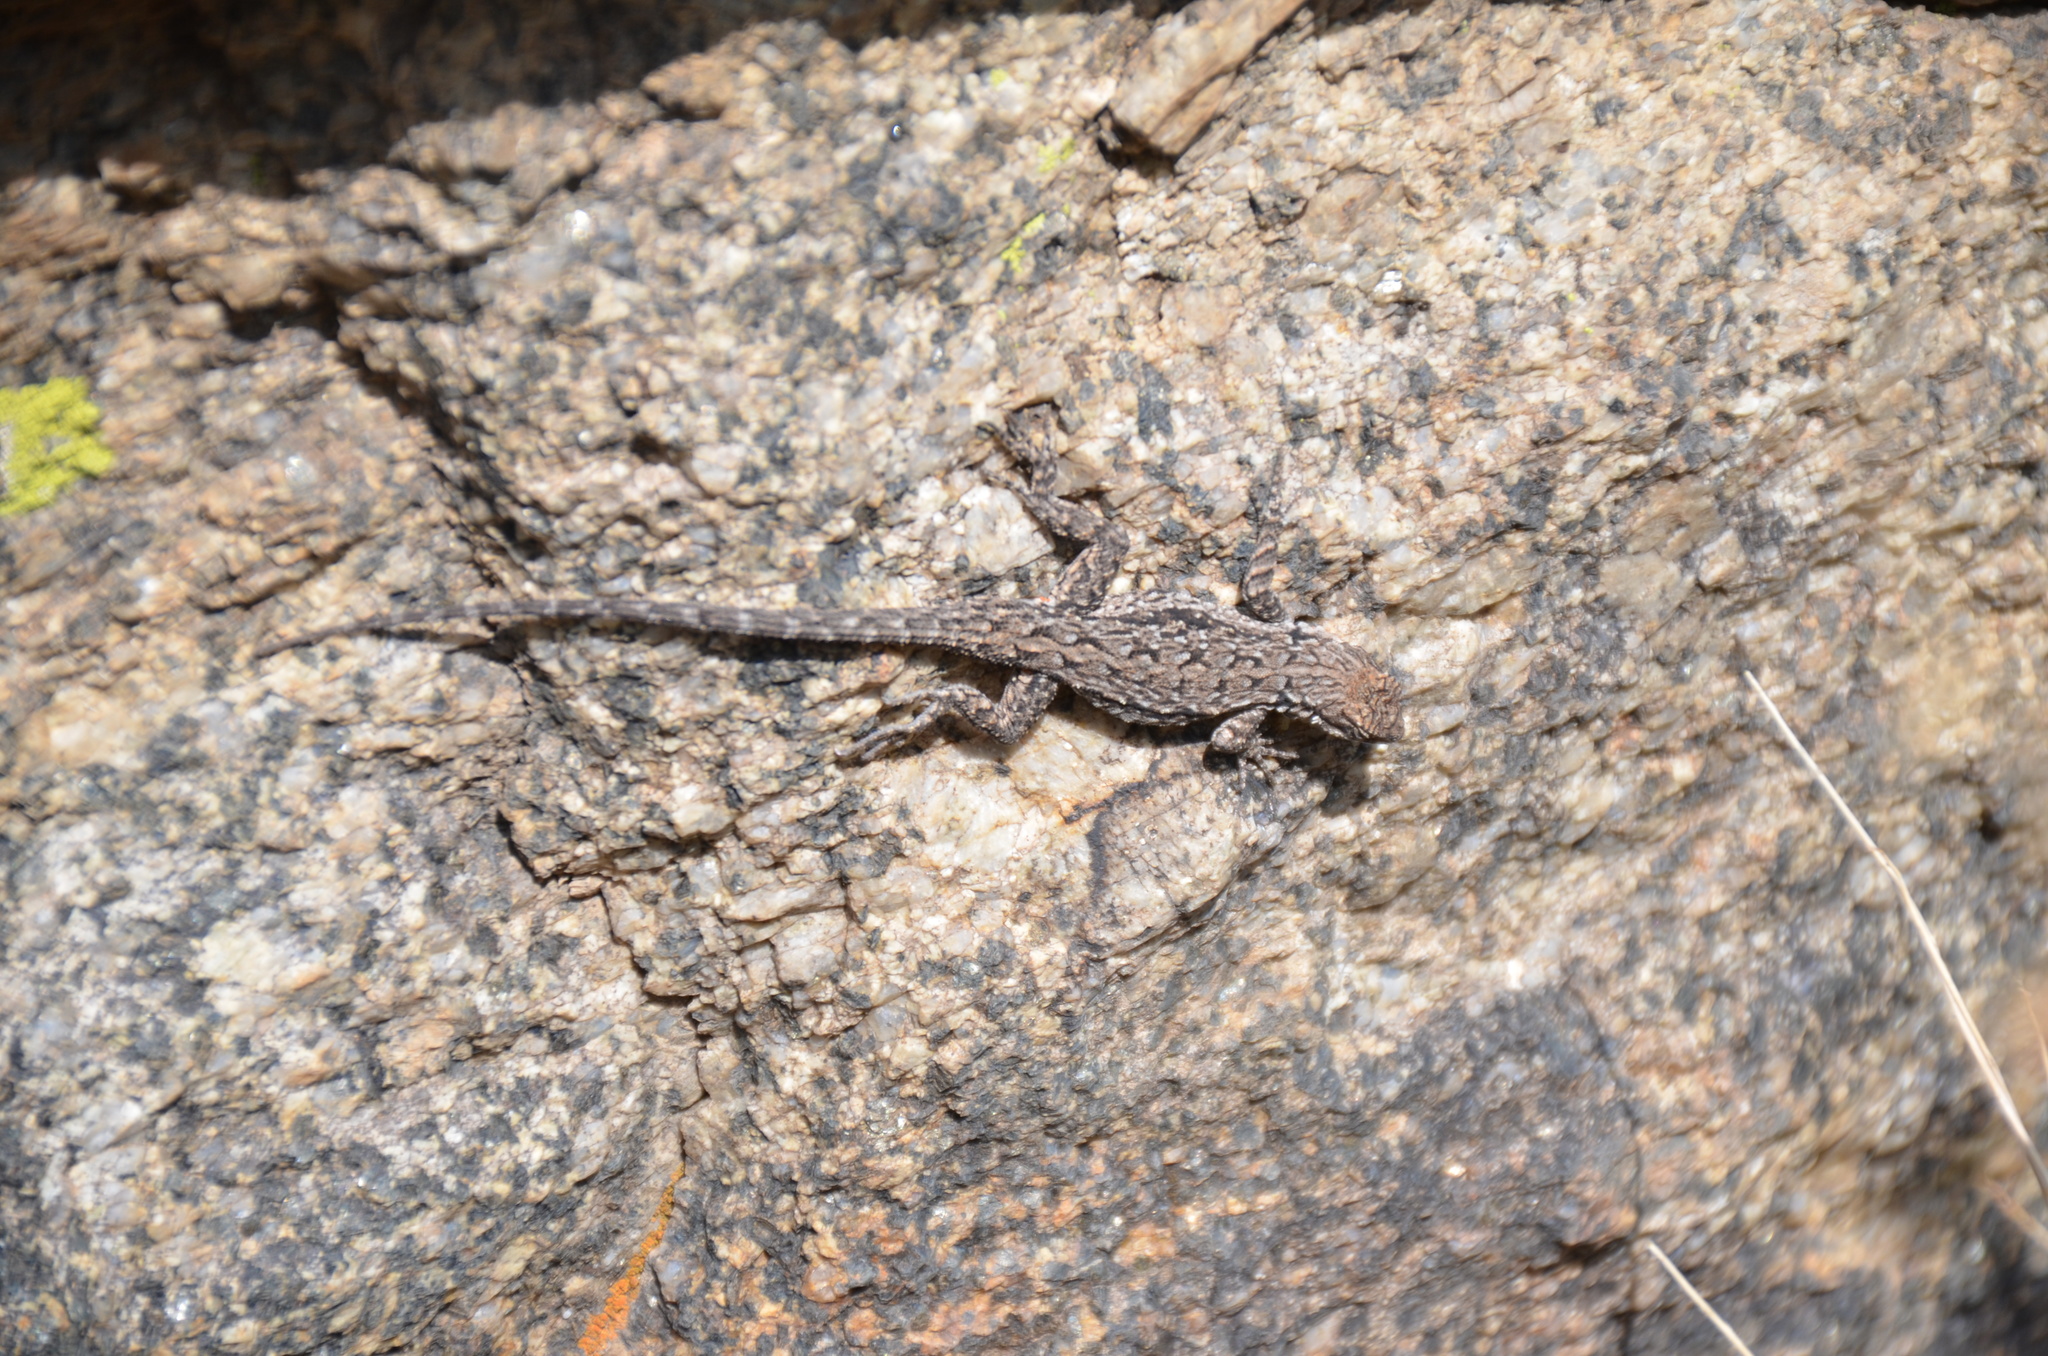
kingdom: Animalia
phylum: Chordata
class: Squamata
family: Phrynosomatidae
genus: Urosaurus
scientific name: Urosaurus ornatus
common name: Ornate tree lizard
